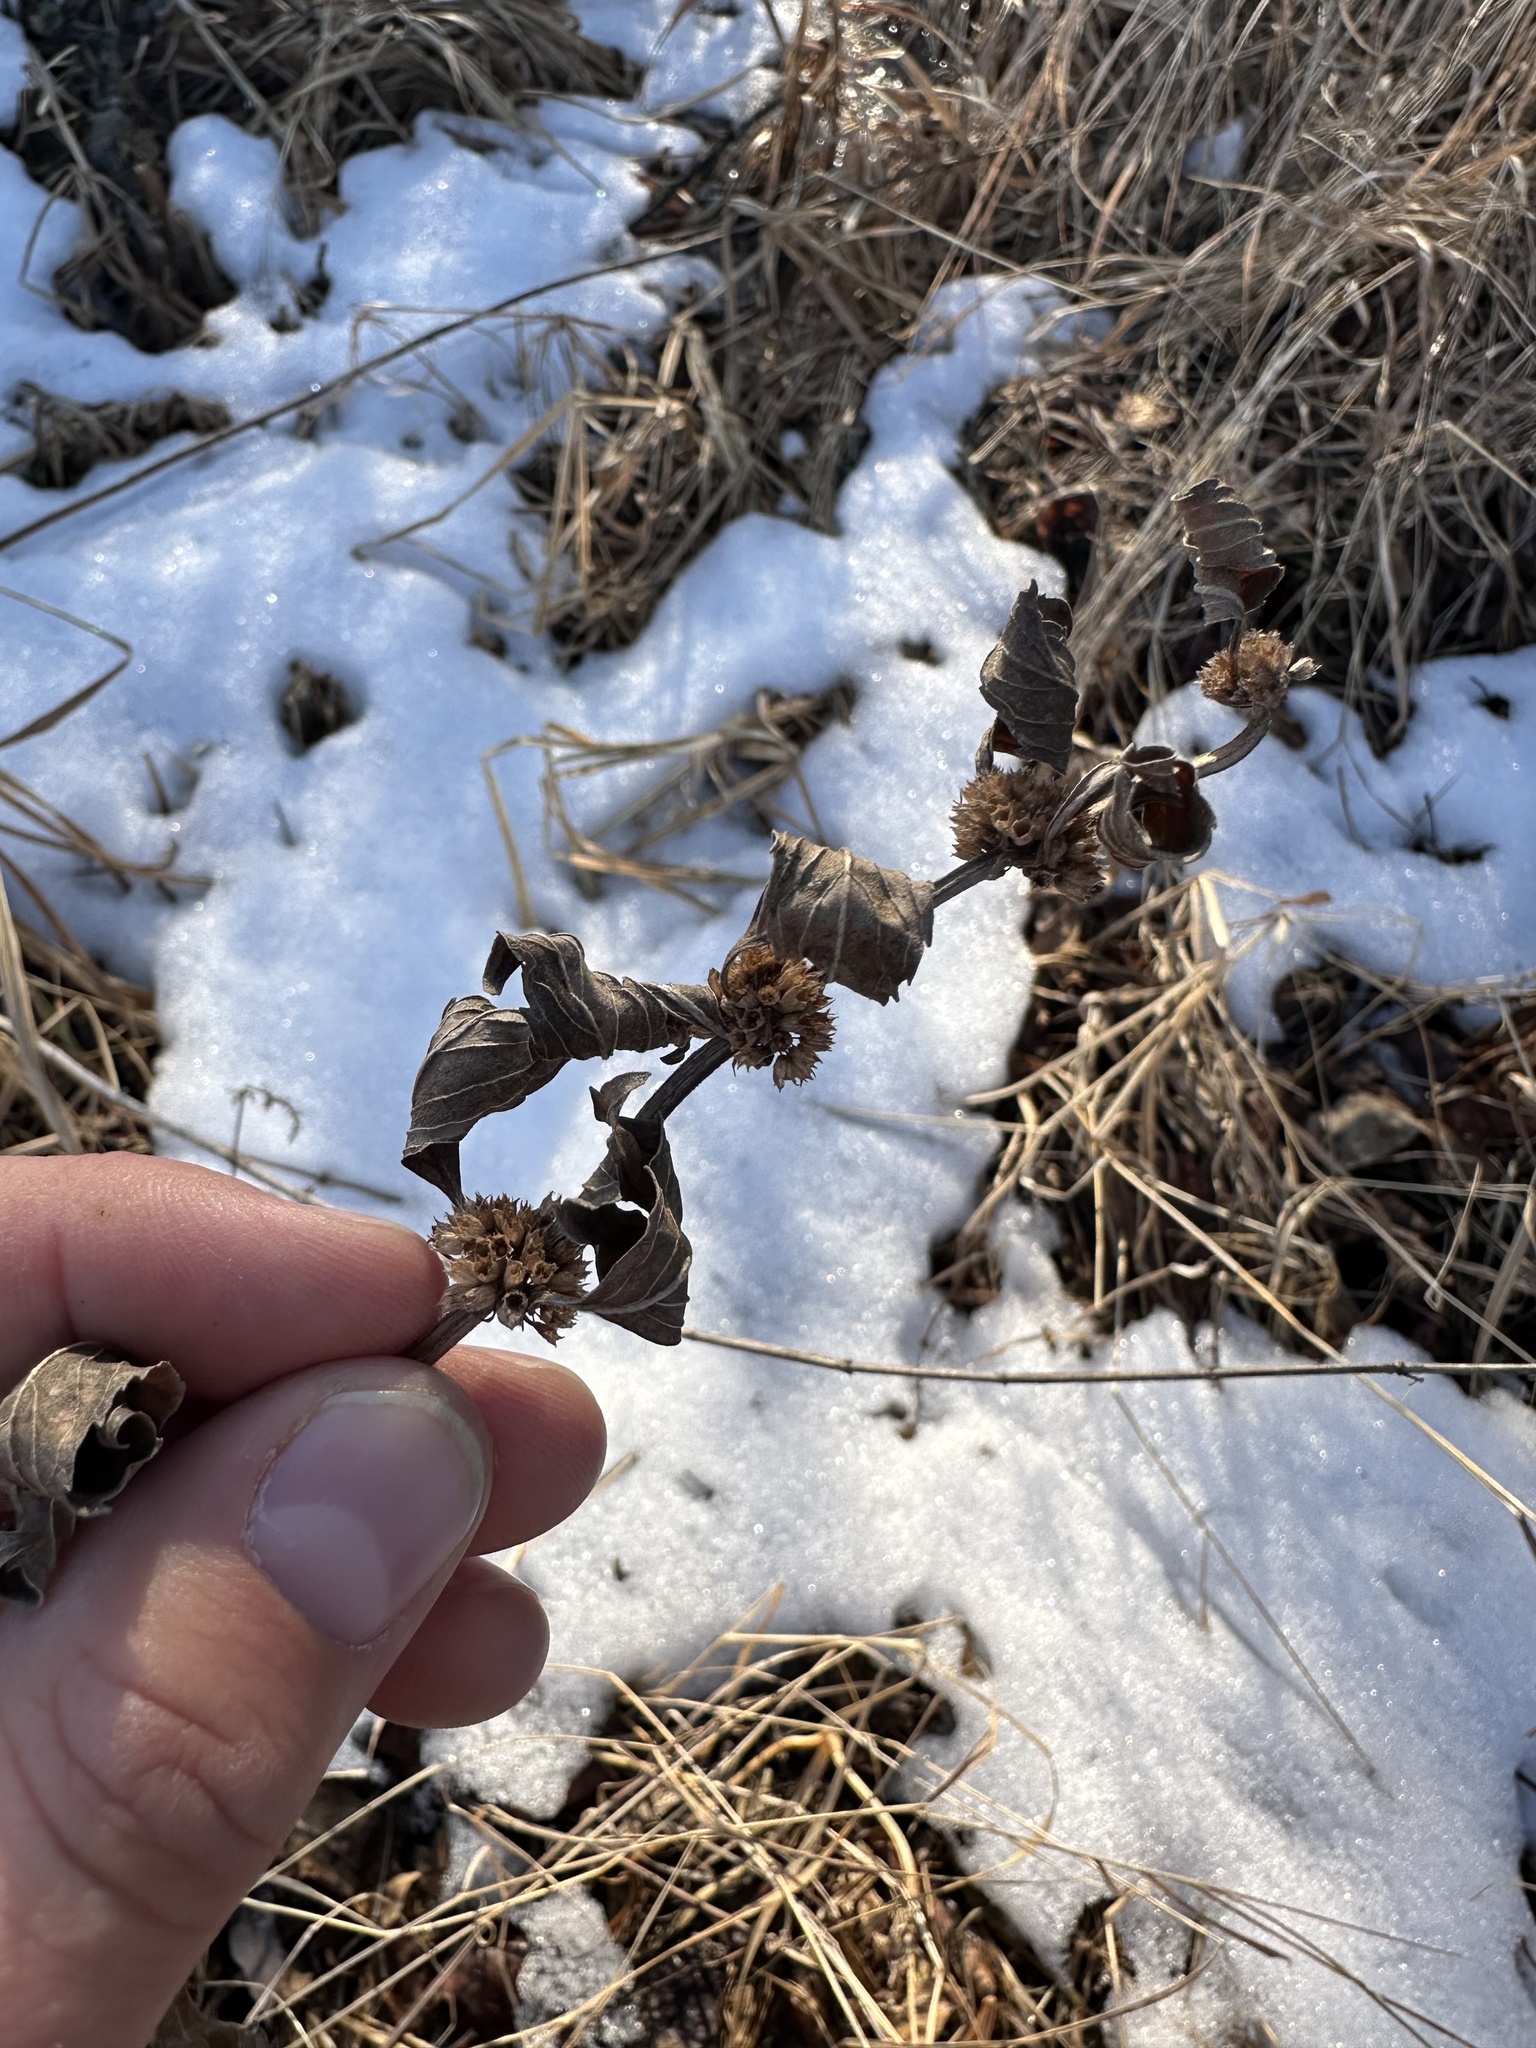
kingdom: Plantae
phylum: Tracheophyta
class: Magnoliopsida
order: Lamiales
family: Lamiaceae
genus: Mentha
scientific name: Mentha canadensis
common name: American corn mint
